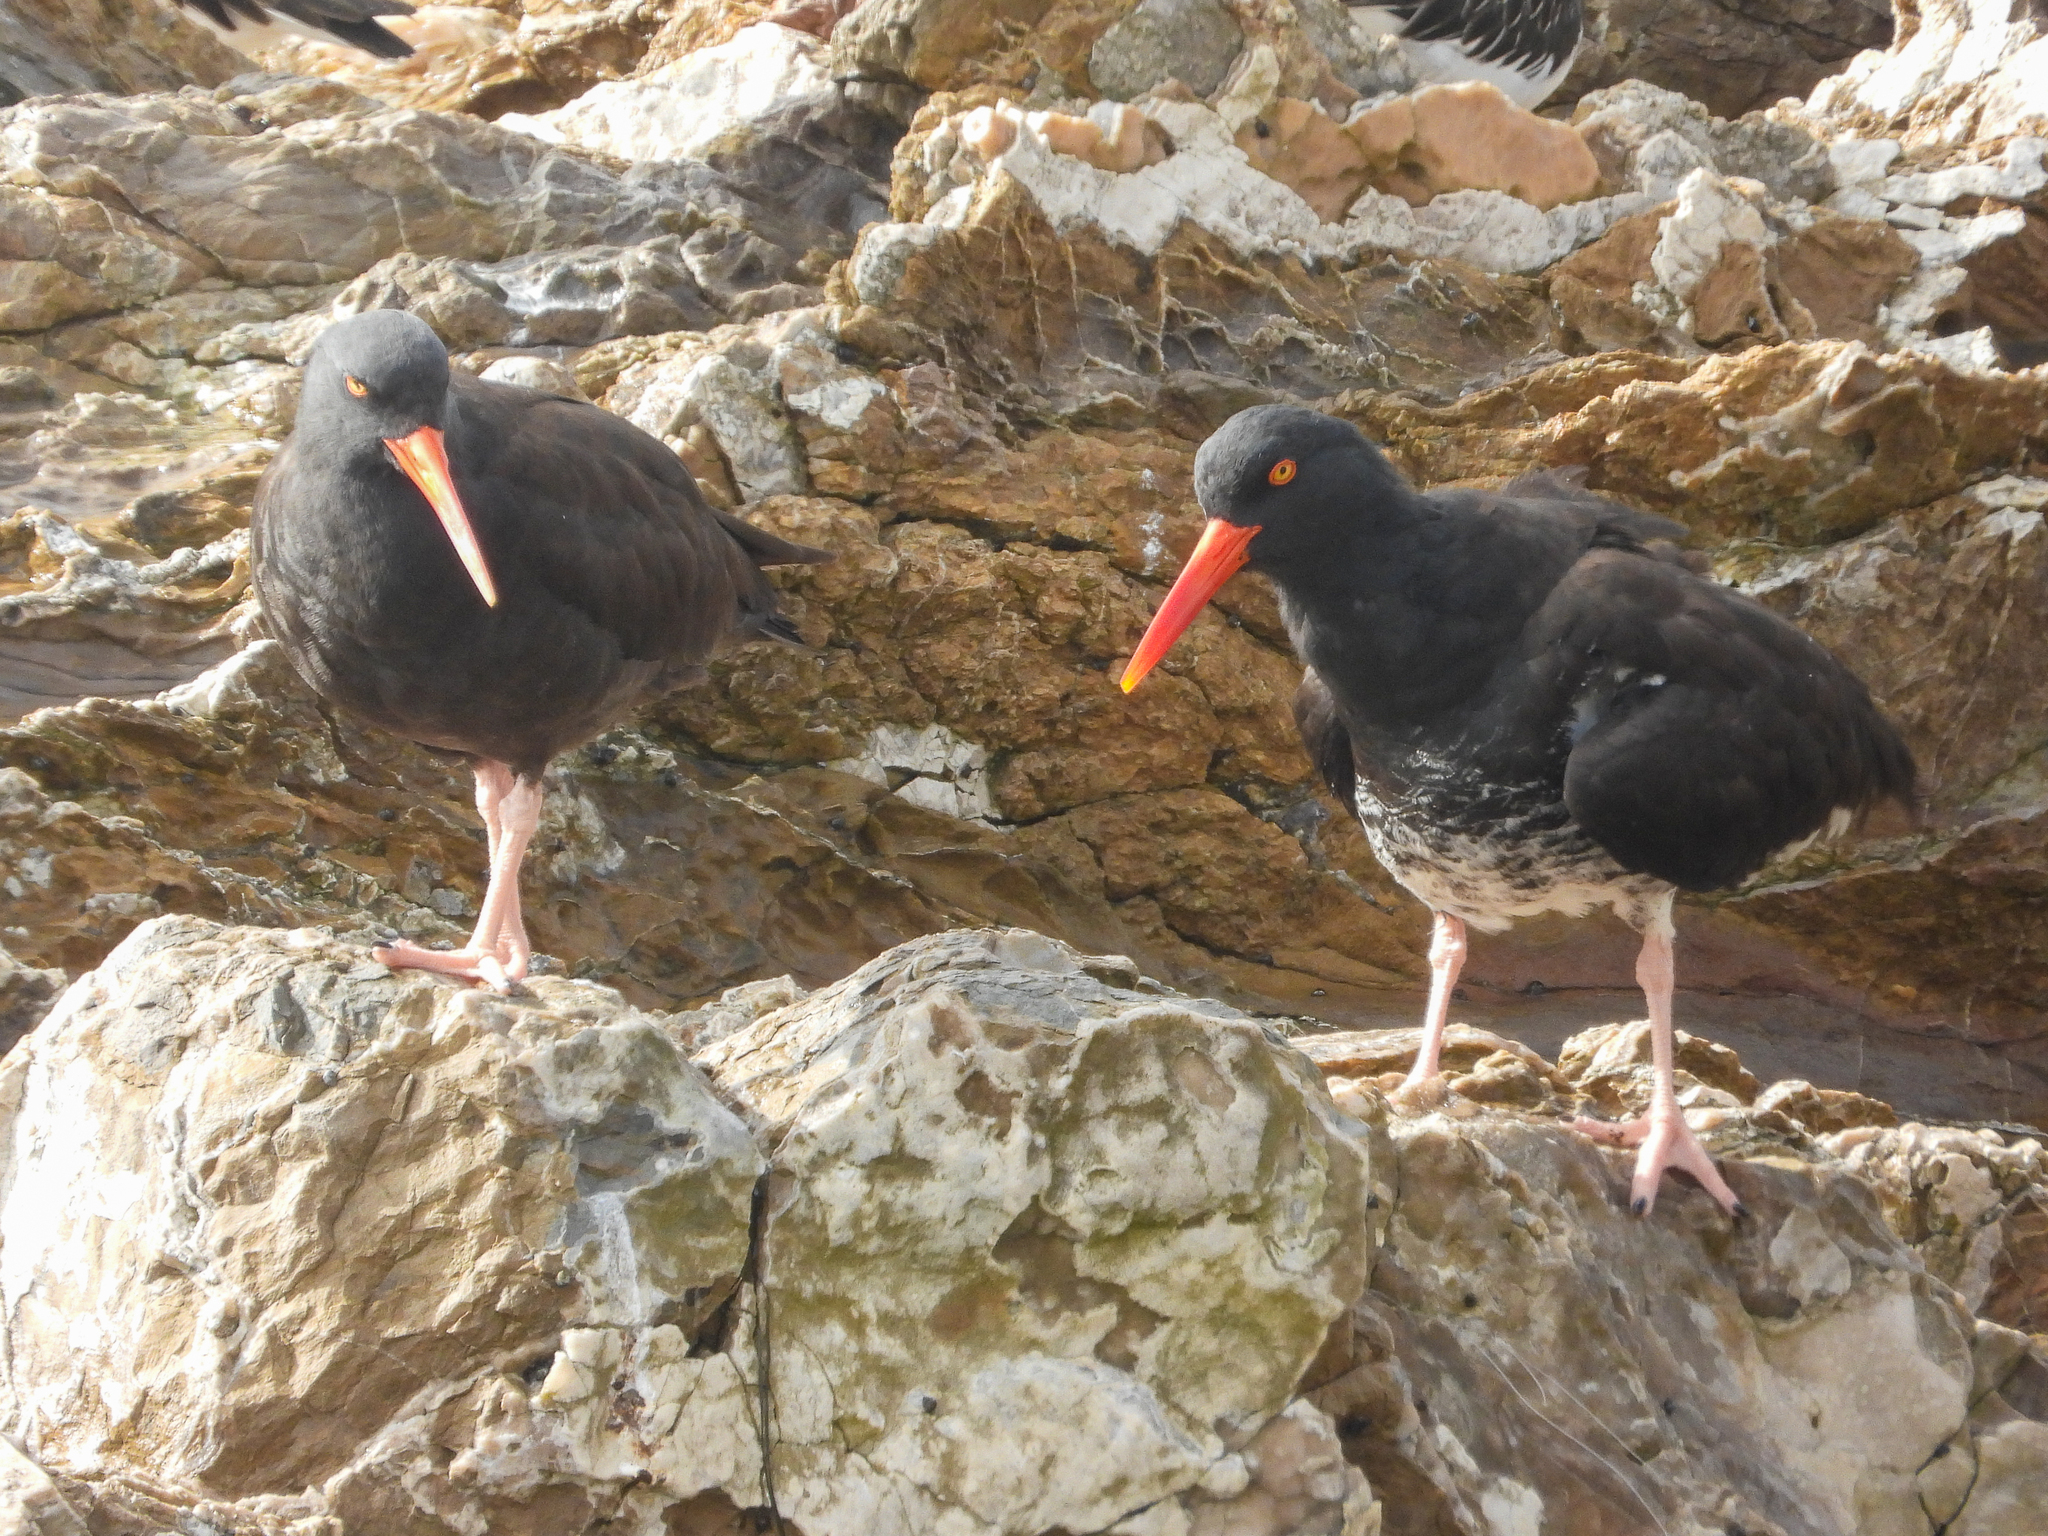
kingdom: Animalia
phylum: Chordata
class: Aves
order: Charadriiformes
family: Haematopodidae
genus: Haematopus
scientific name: Haematopus
